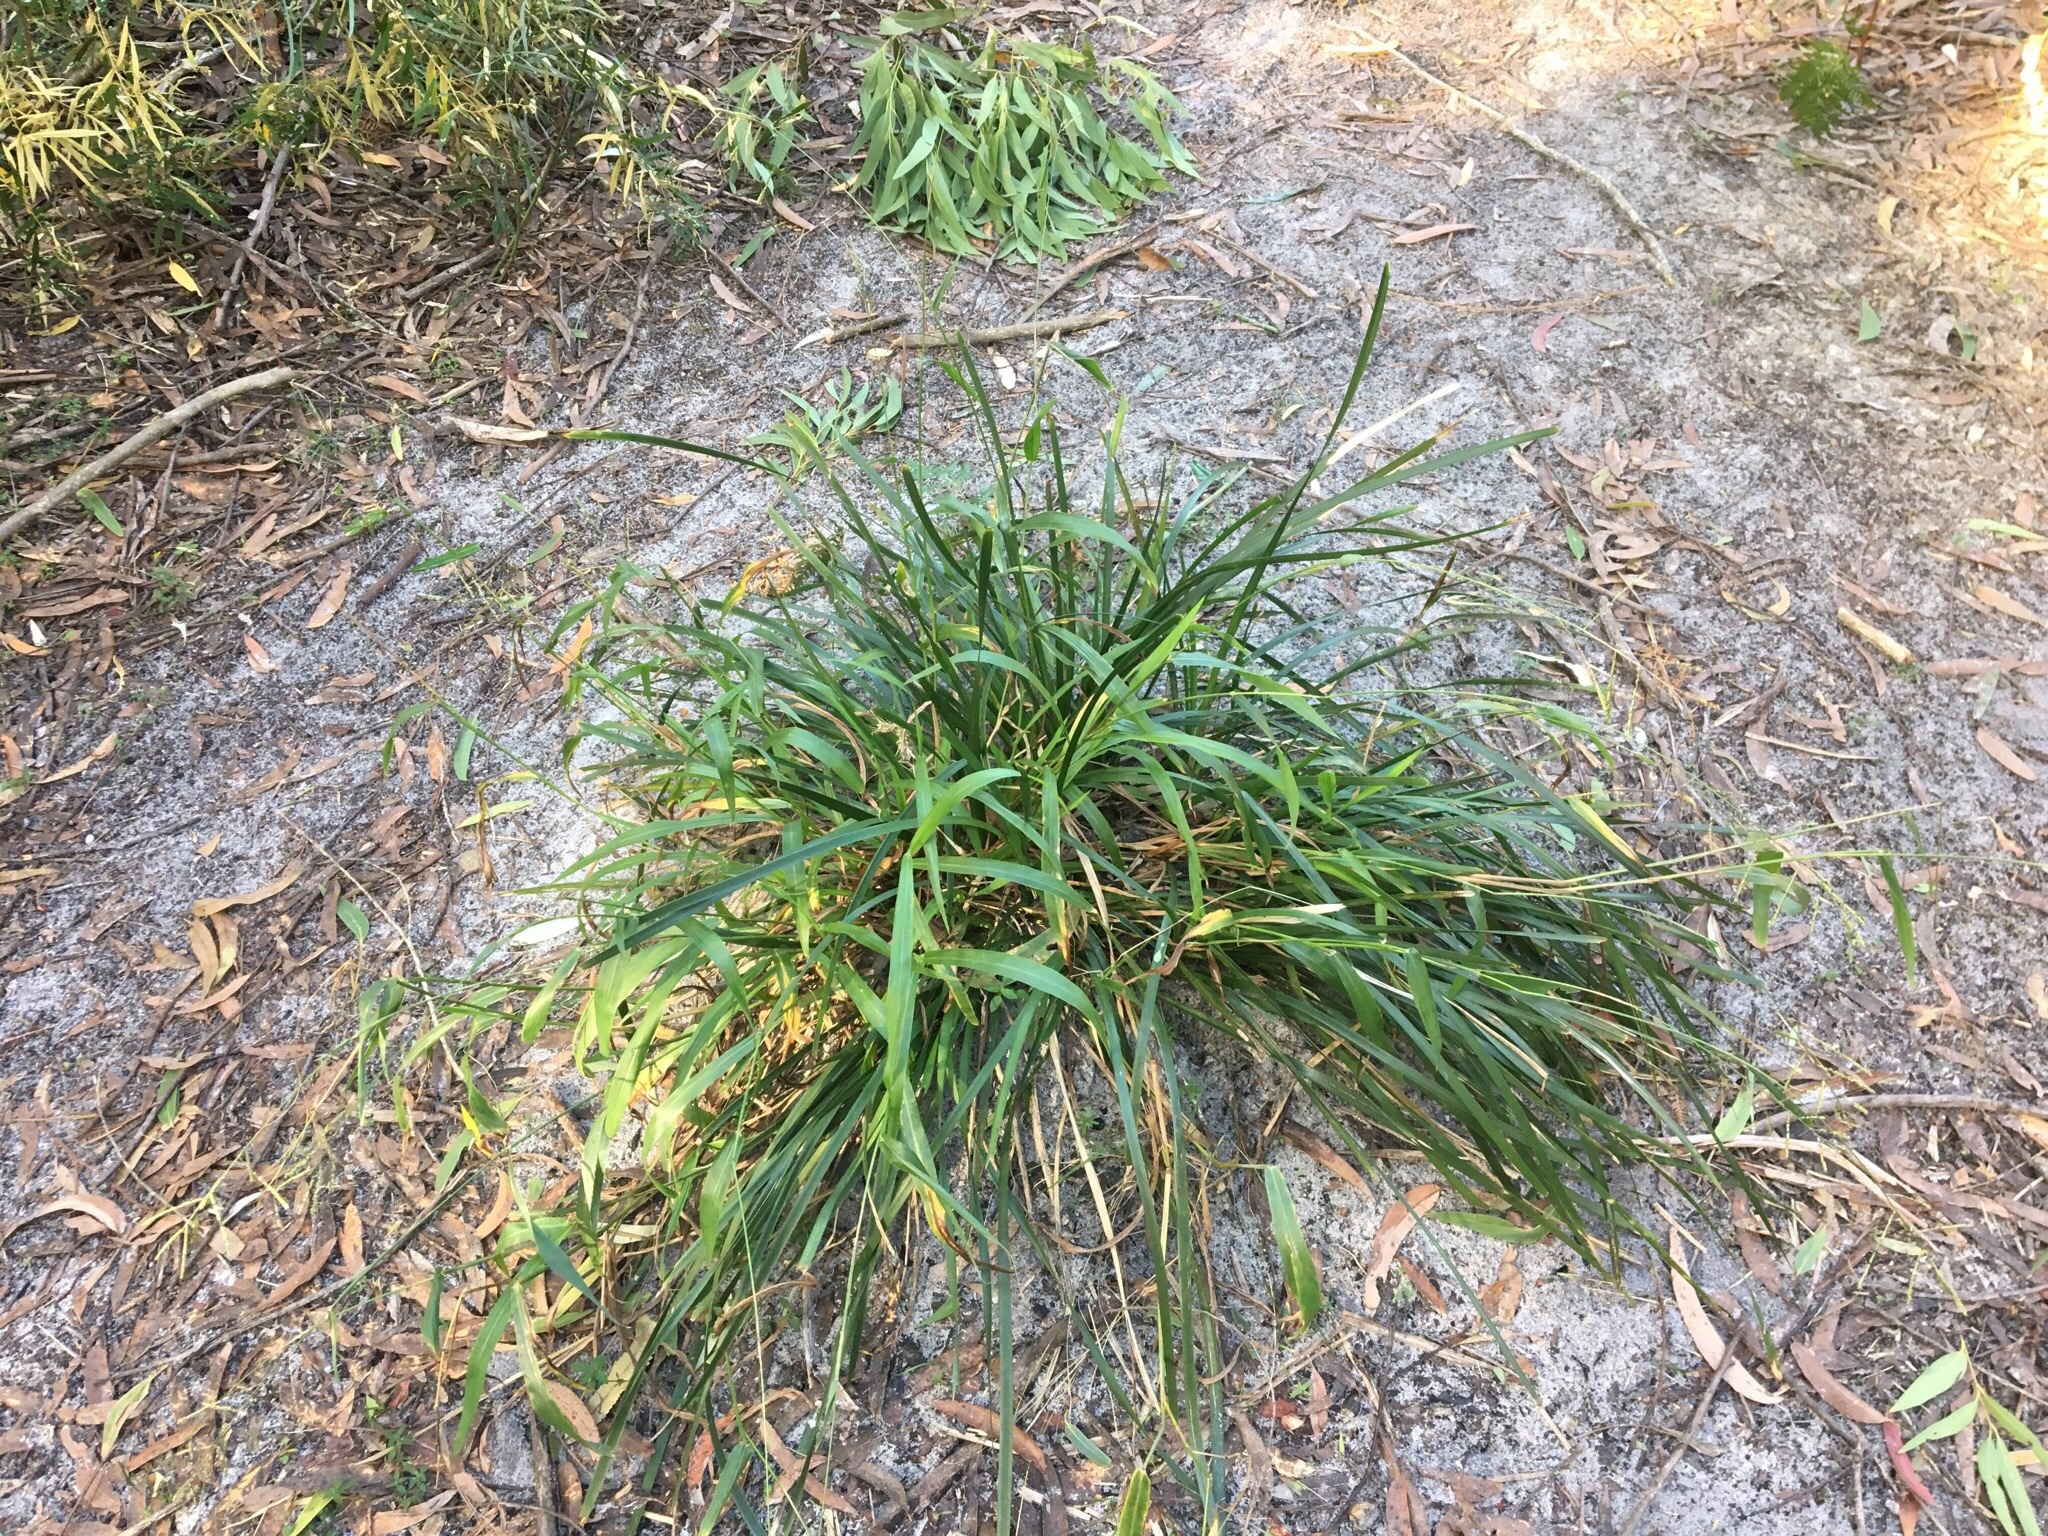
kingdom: Plantae
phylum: Tracheophyta
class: Liliopsida
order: Poales
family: Poaceae
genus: Paspalum
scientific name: Paspalum mandiocanum
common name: Paspalum
